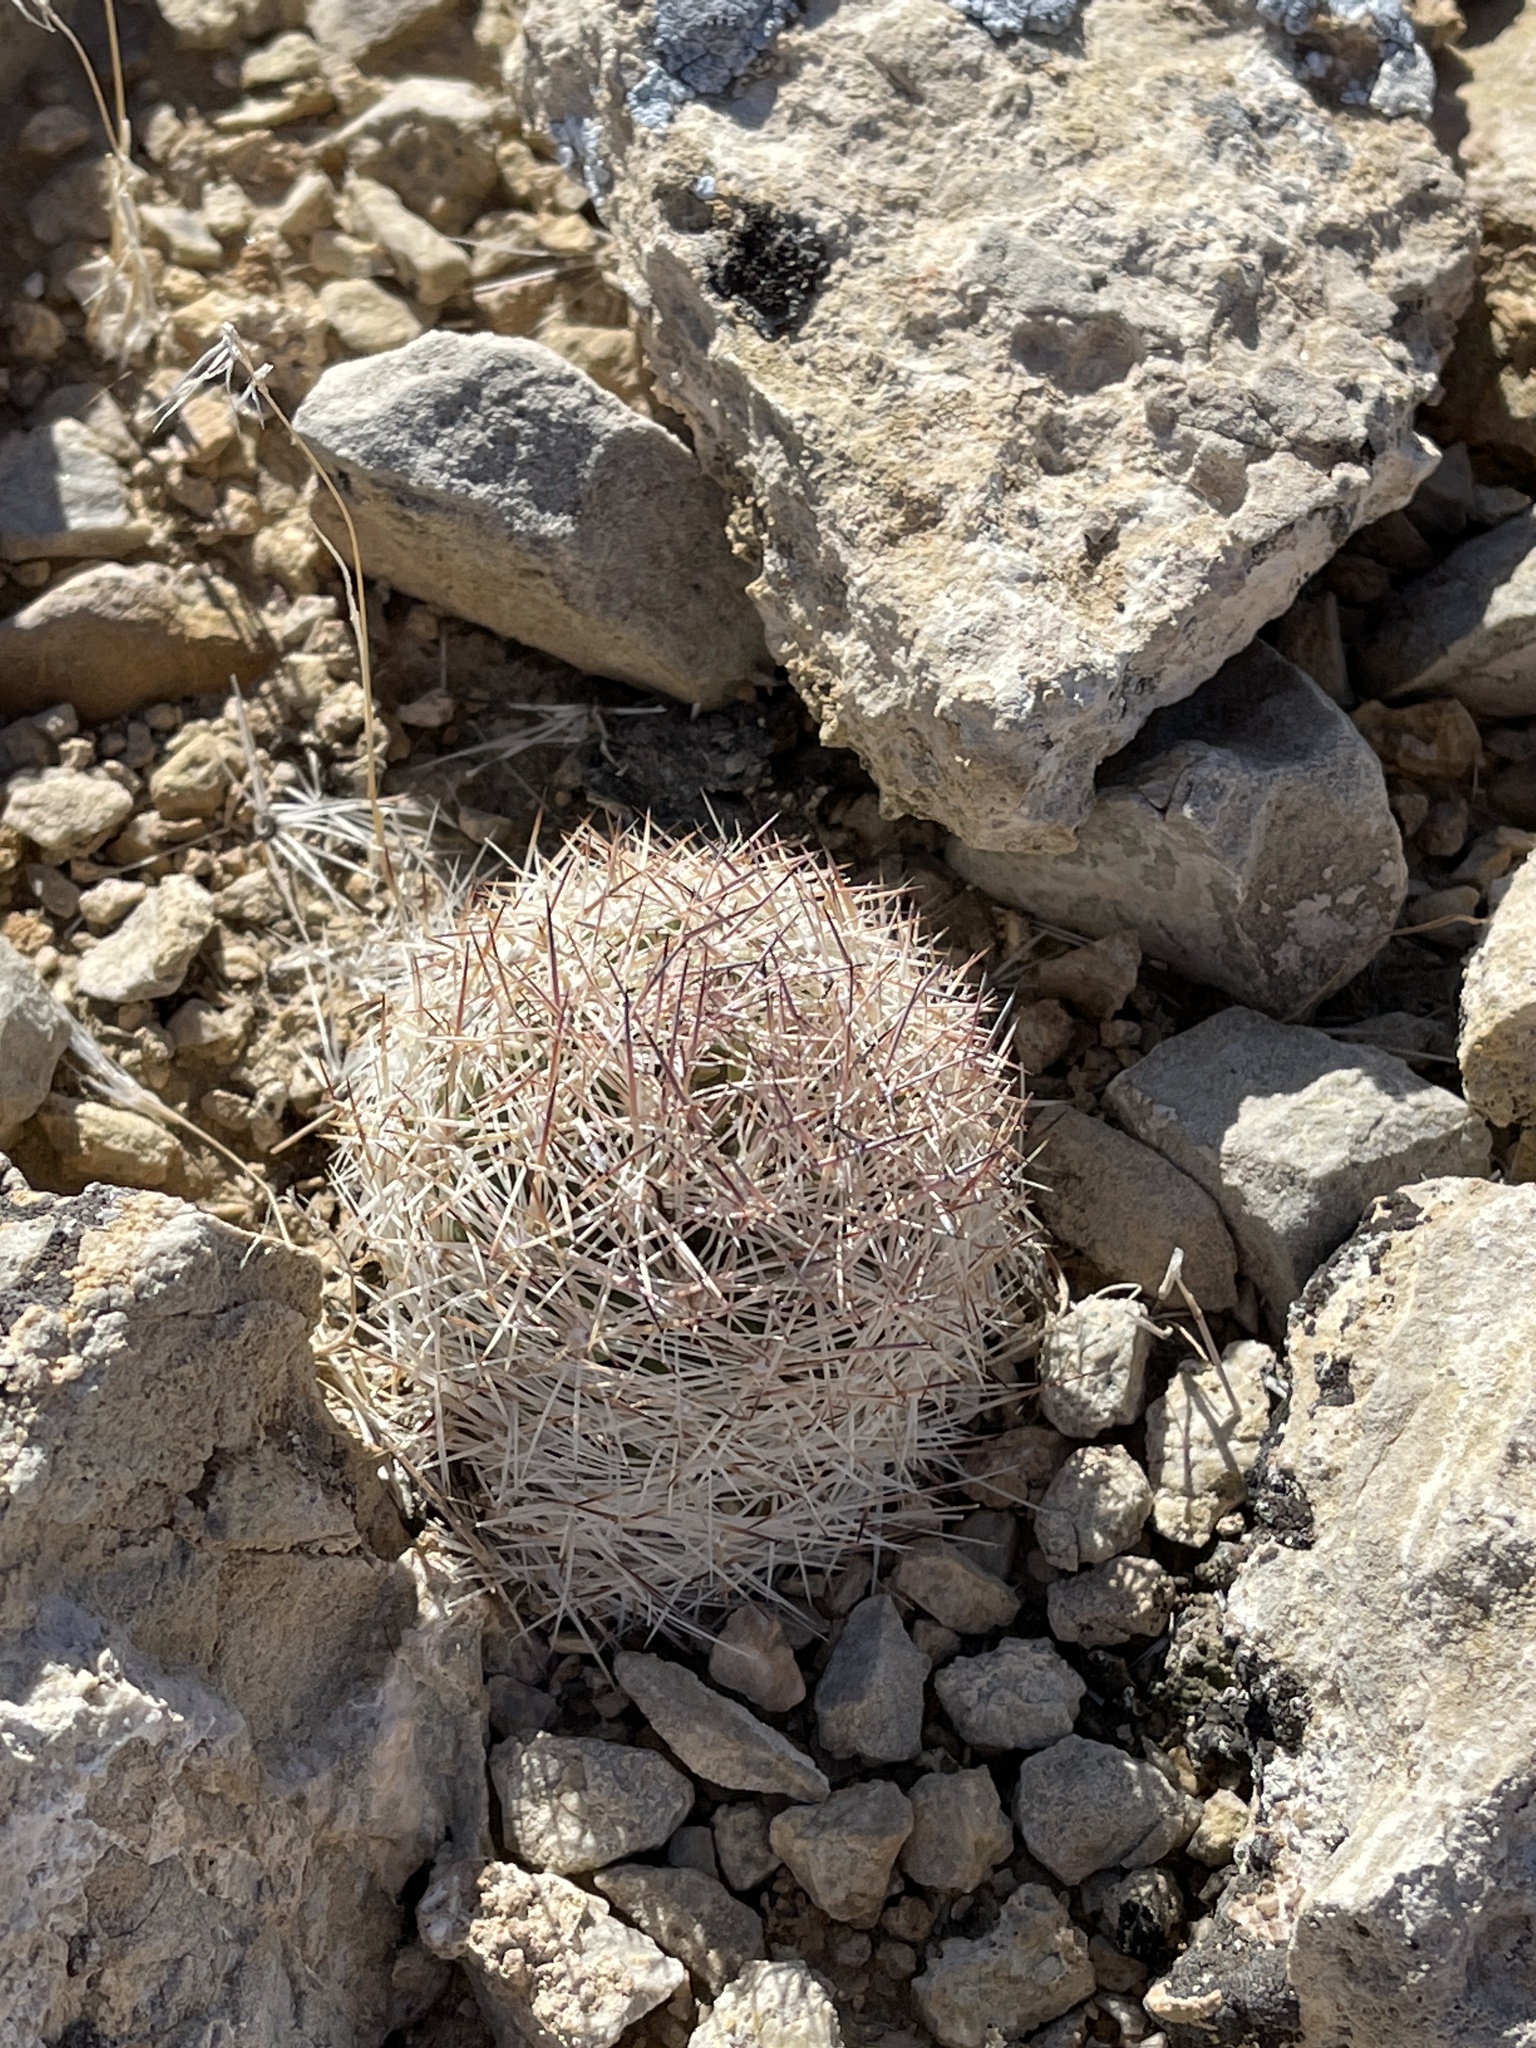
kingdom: Plantae
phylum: Tracheophyta
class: Magnoliopsida
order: Caryophyllales
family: Cactaceae
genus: Pelecyphora
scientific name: Pelecyphora vivipara
